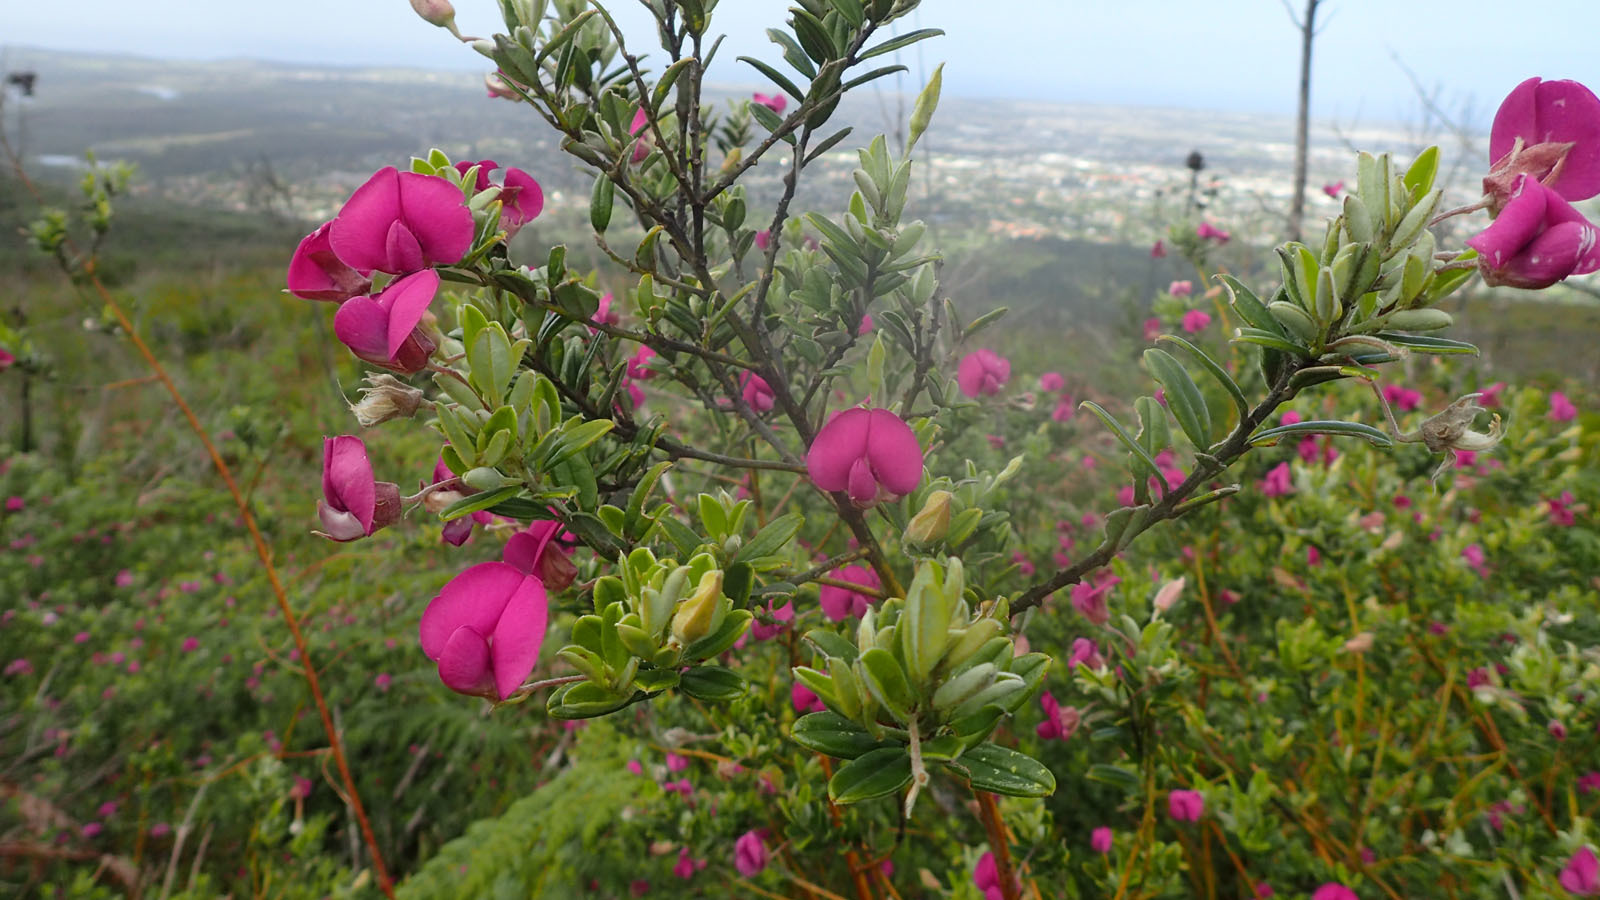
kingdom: Plantae
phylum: Tracheophyta
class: Magnoliopsida
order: Fabales
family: Fabaceae
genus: Podalyria
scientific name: Podalyria buxifolia
